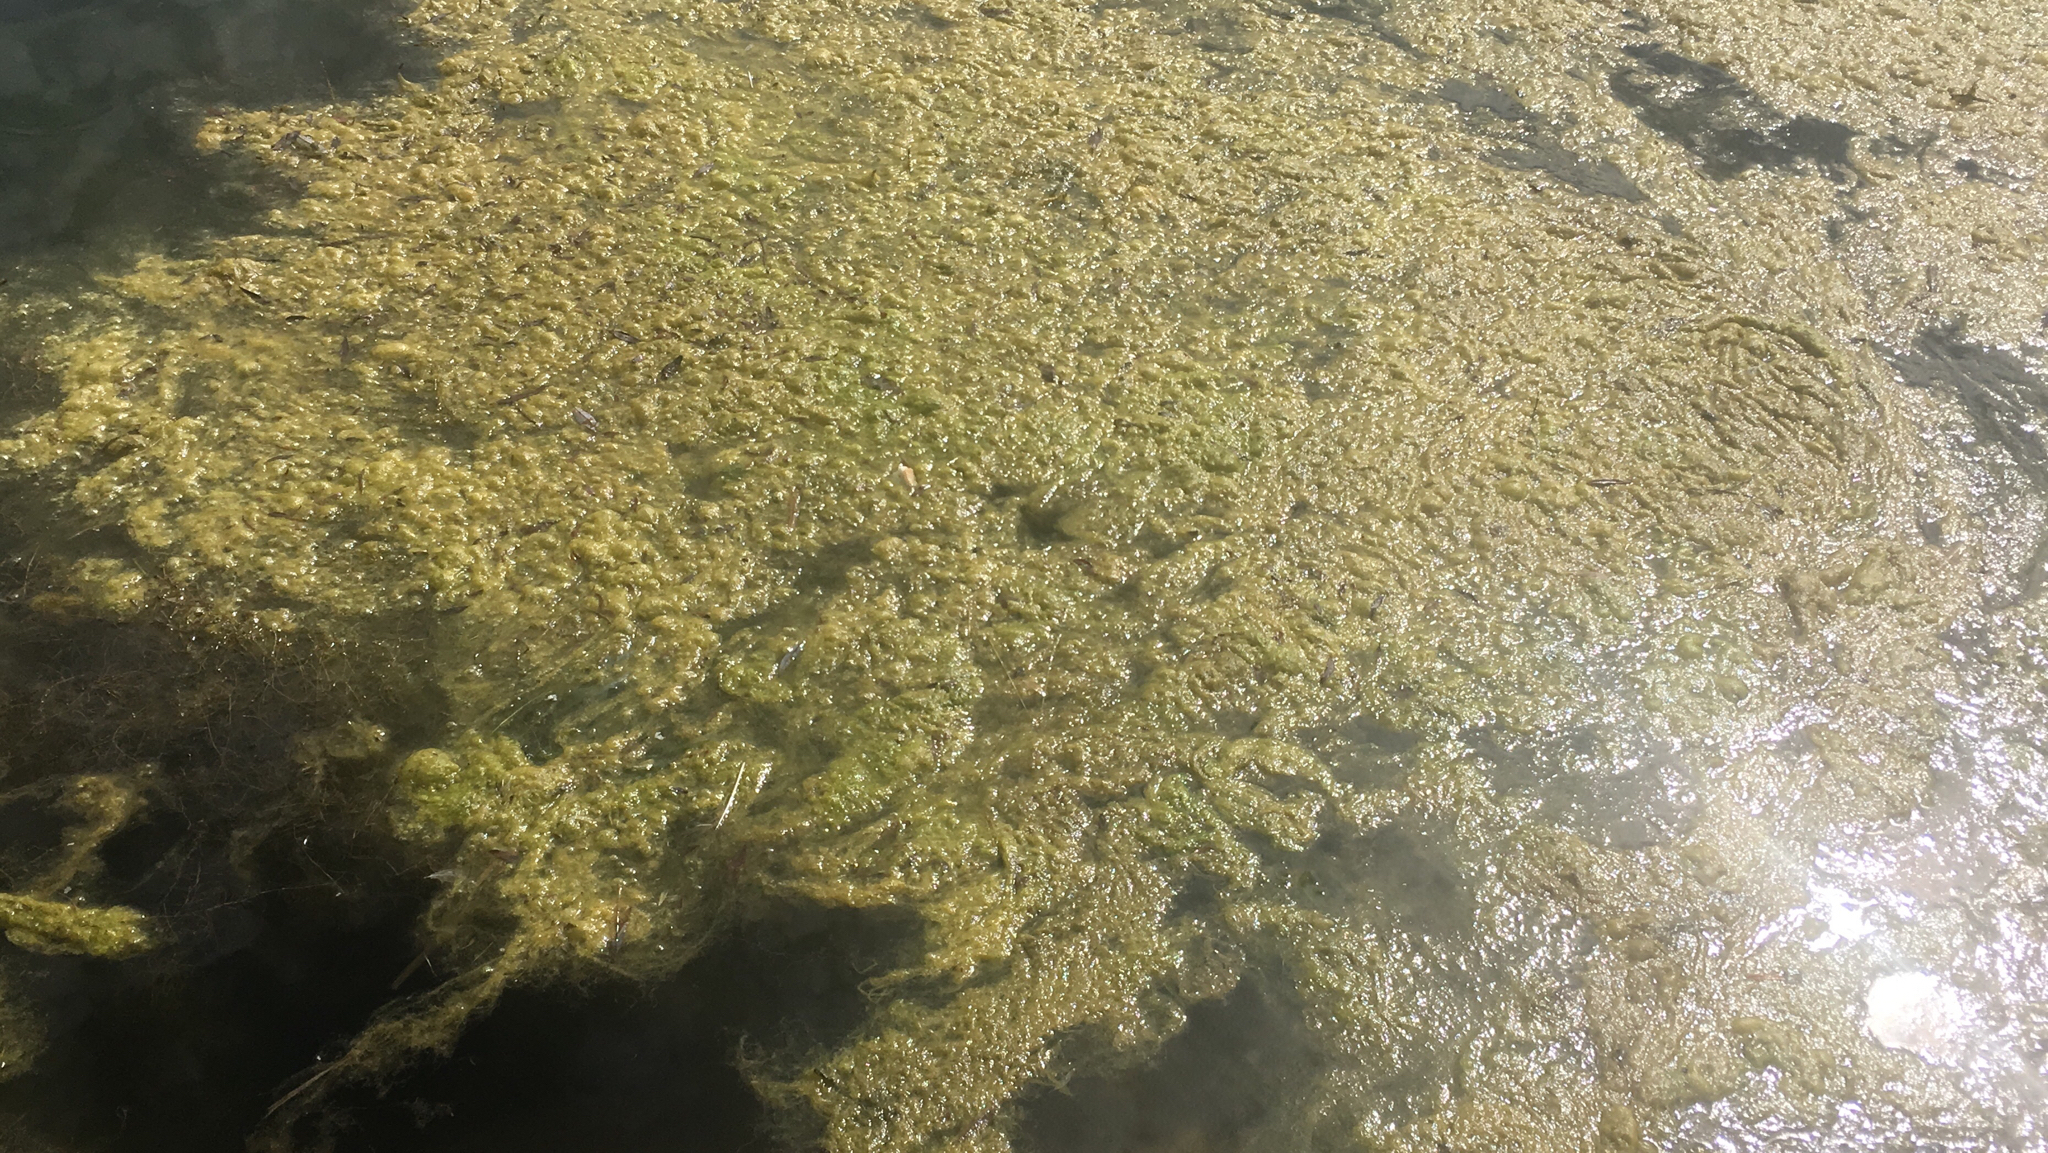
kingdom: Plantae
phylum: Chlorophyta
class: Ulvophyceae
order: Ulvales
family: Ulvaceae
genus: Ulva
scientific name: Ulva intestinalis
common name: Gut weed
